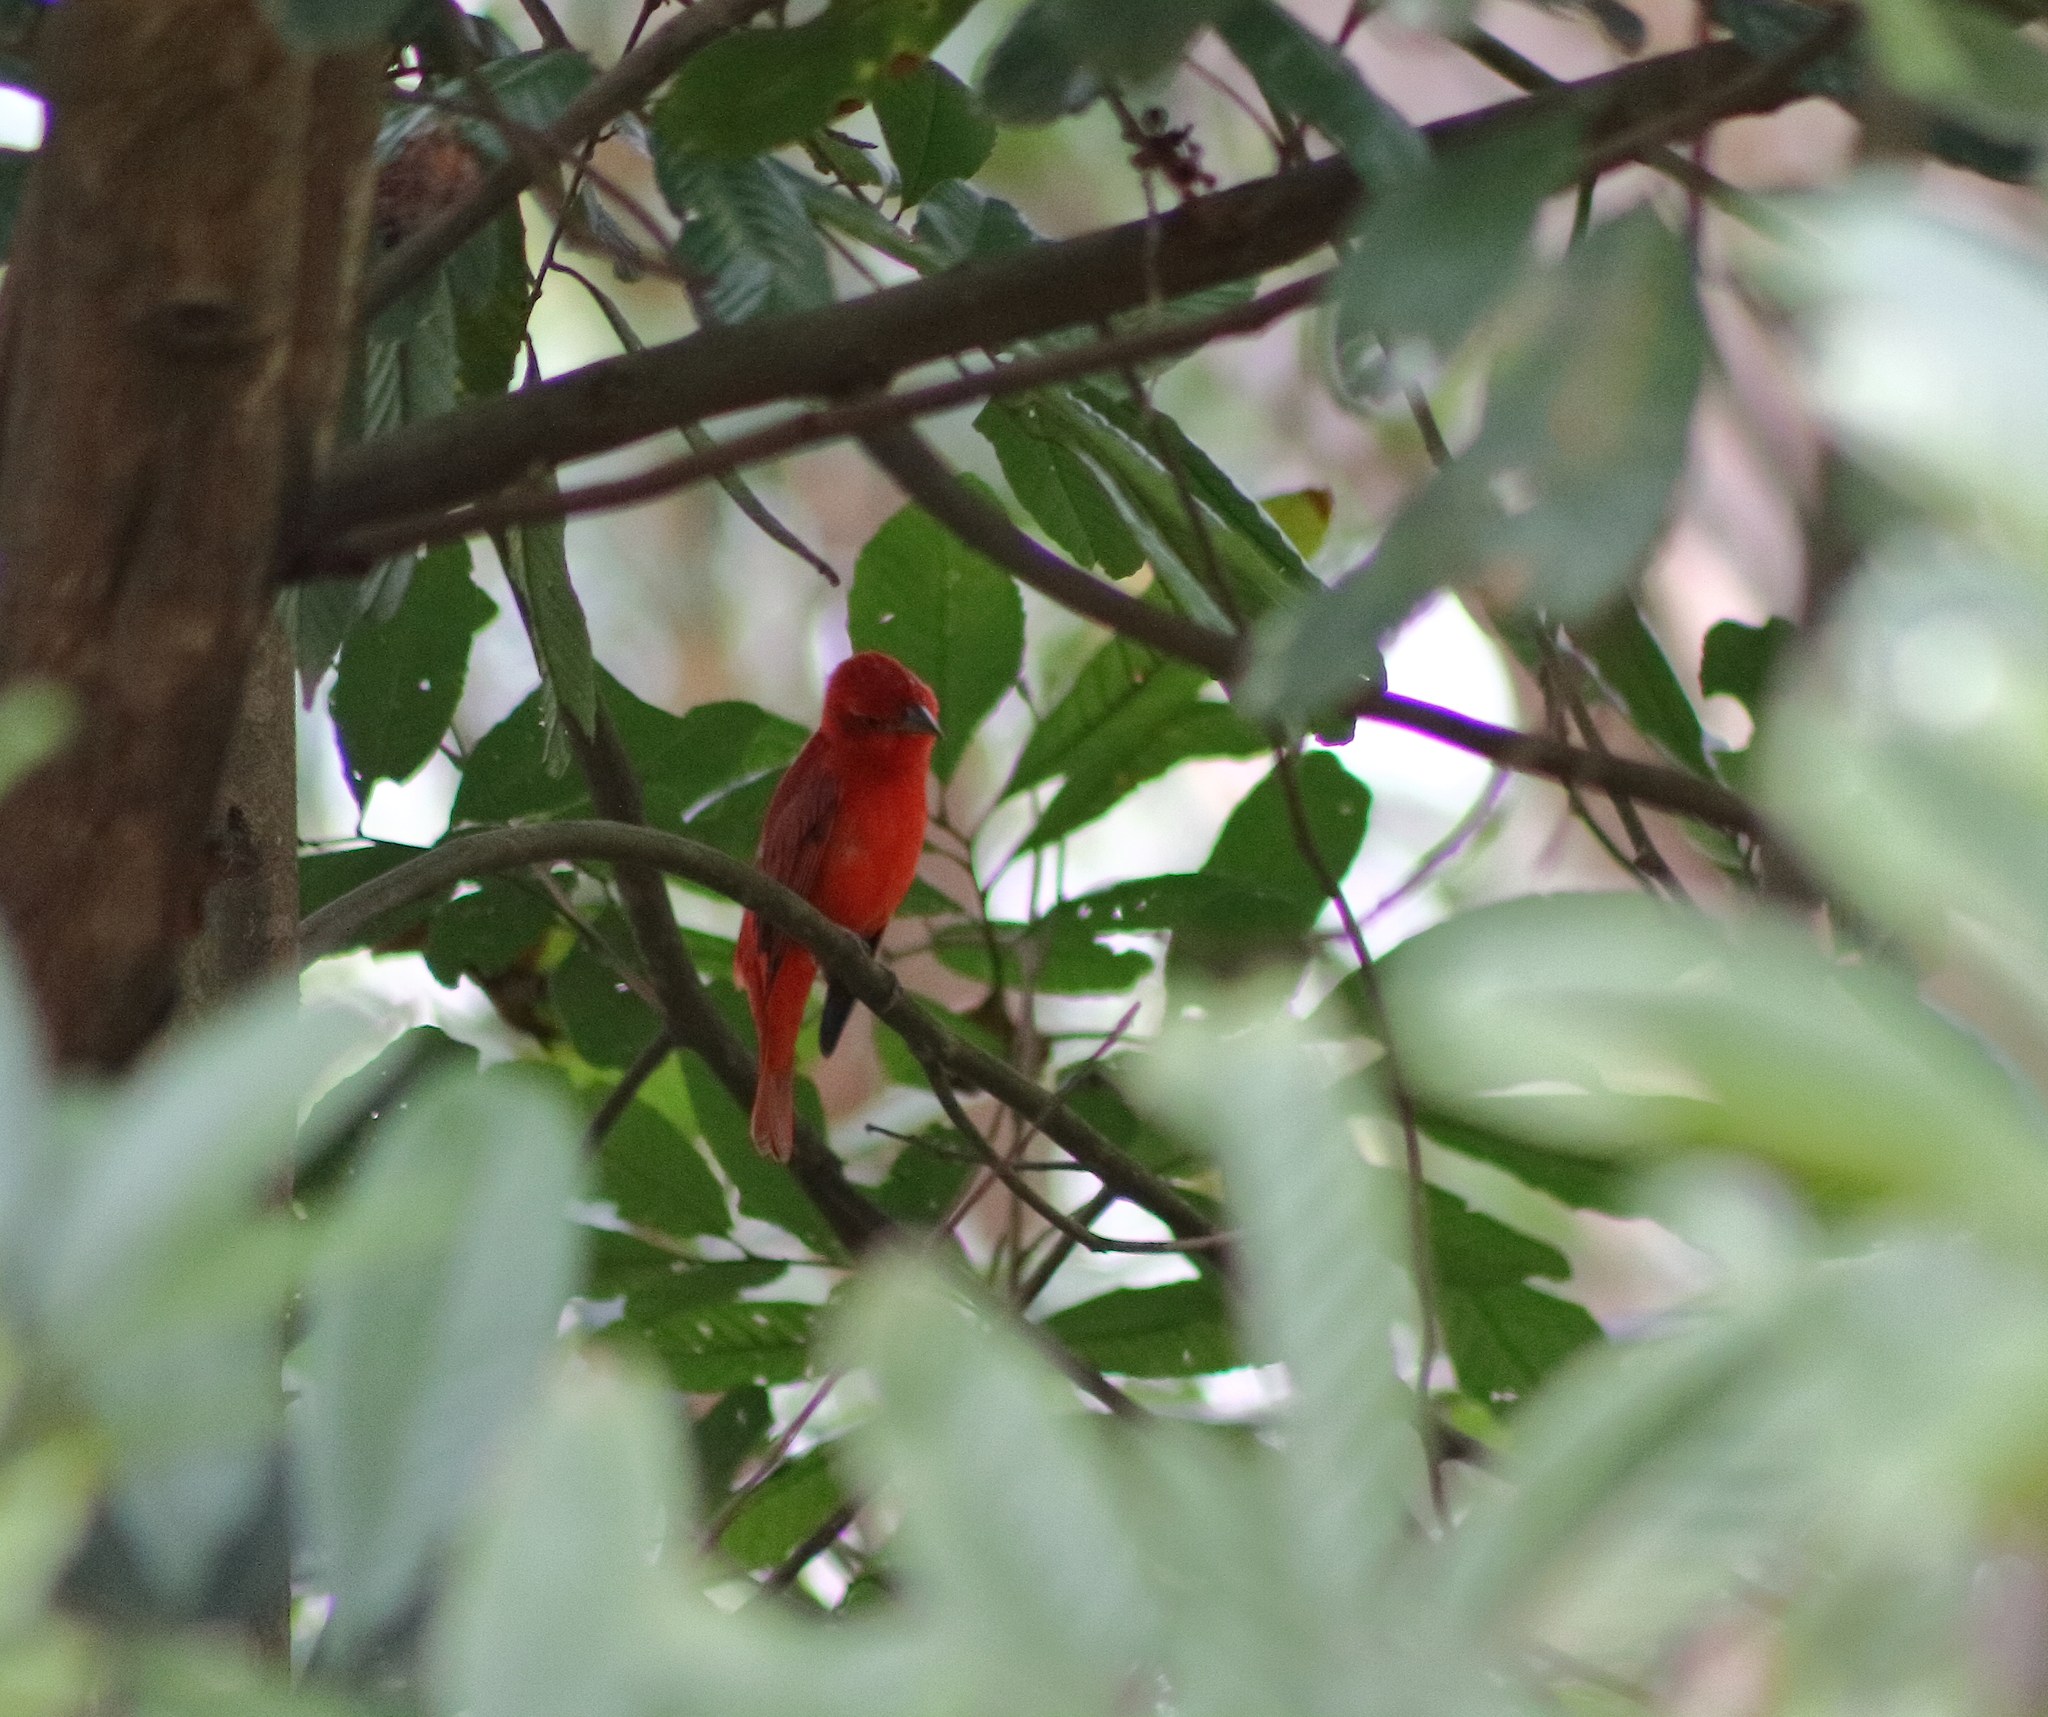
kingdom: Animalia
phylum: Chordata
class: Aves
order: Passeriformes
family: Cardinalidae
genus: Piranga
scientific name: Piranga rubra
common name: Summer tanager
